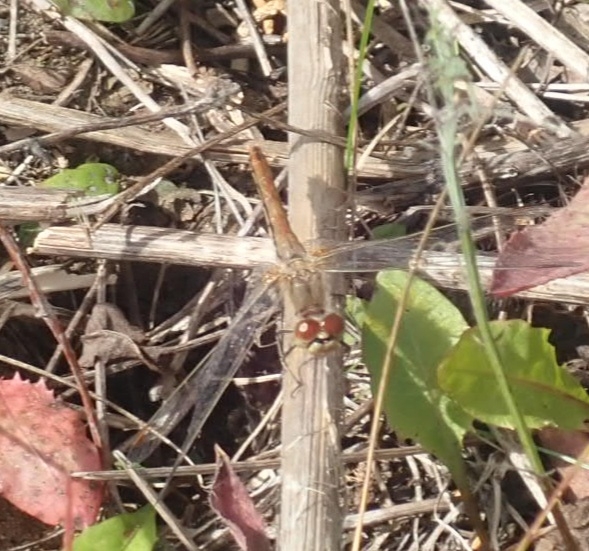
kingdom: Animalia
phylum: Arthropoda
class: Insecta
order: Odonata
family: Libellulidae
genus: Sympetrum
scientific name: Sympetrum flaveolum
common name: Yellow-winged darter
